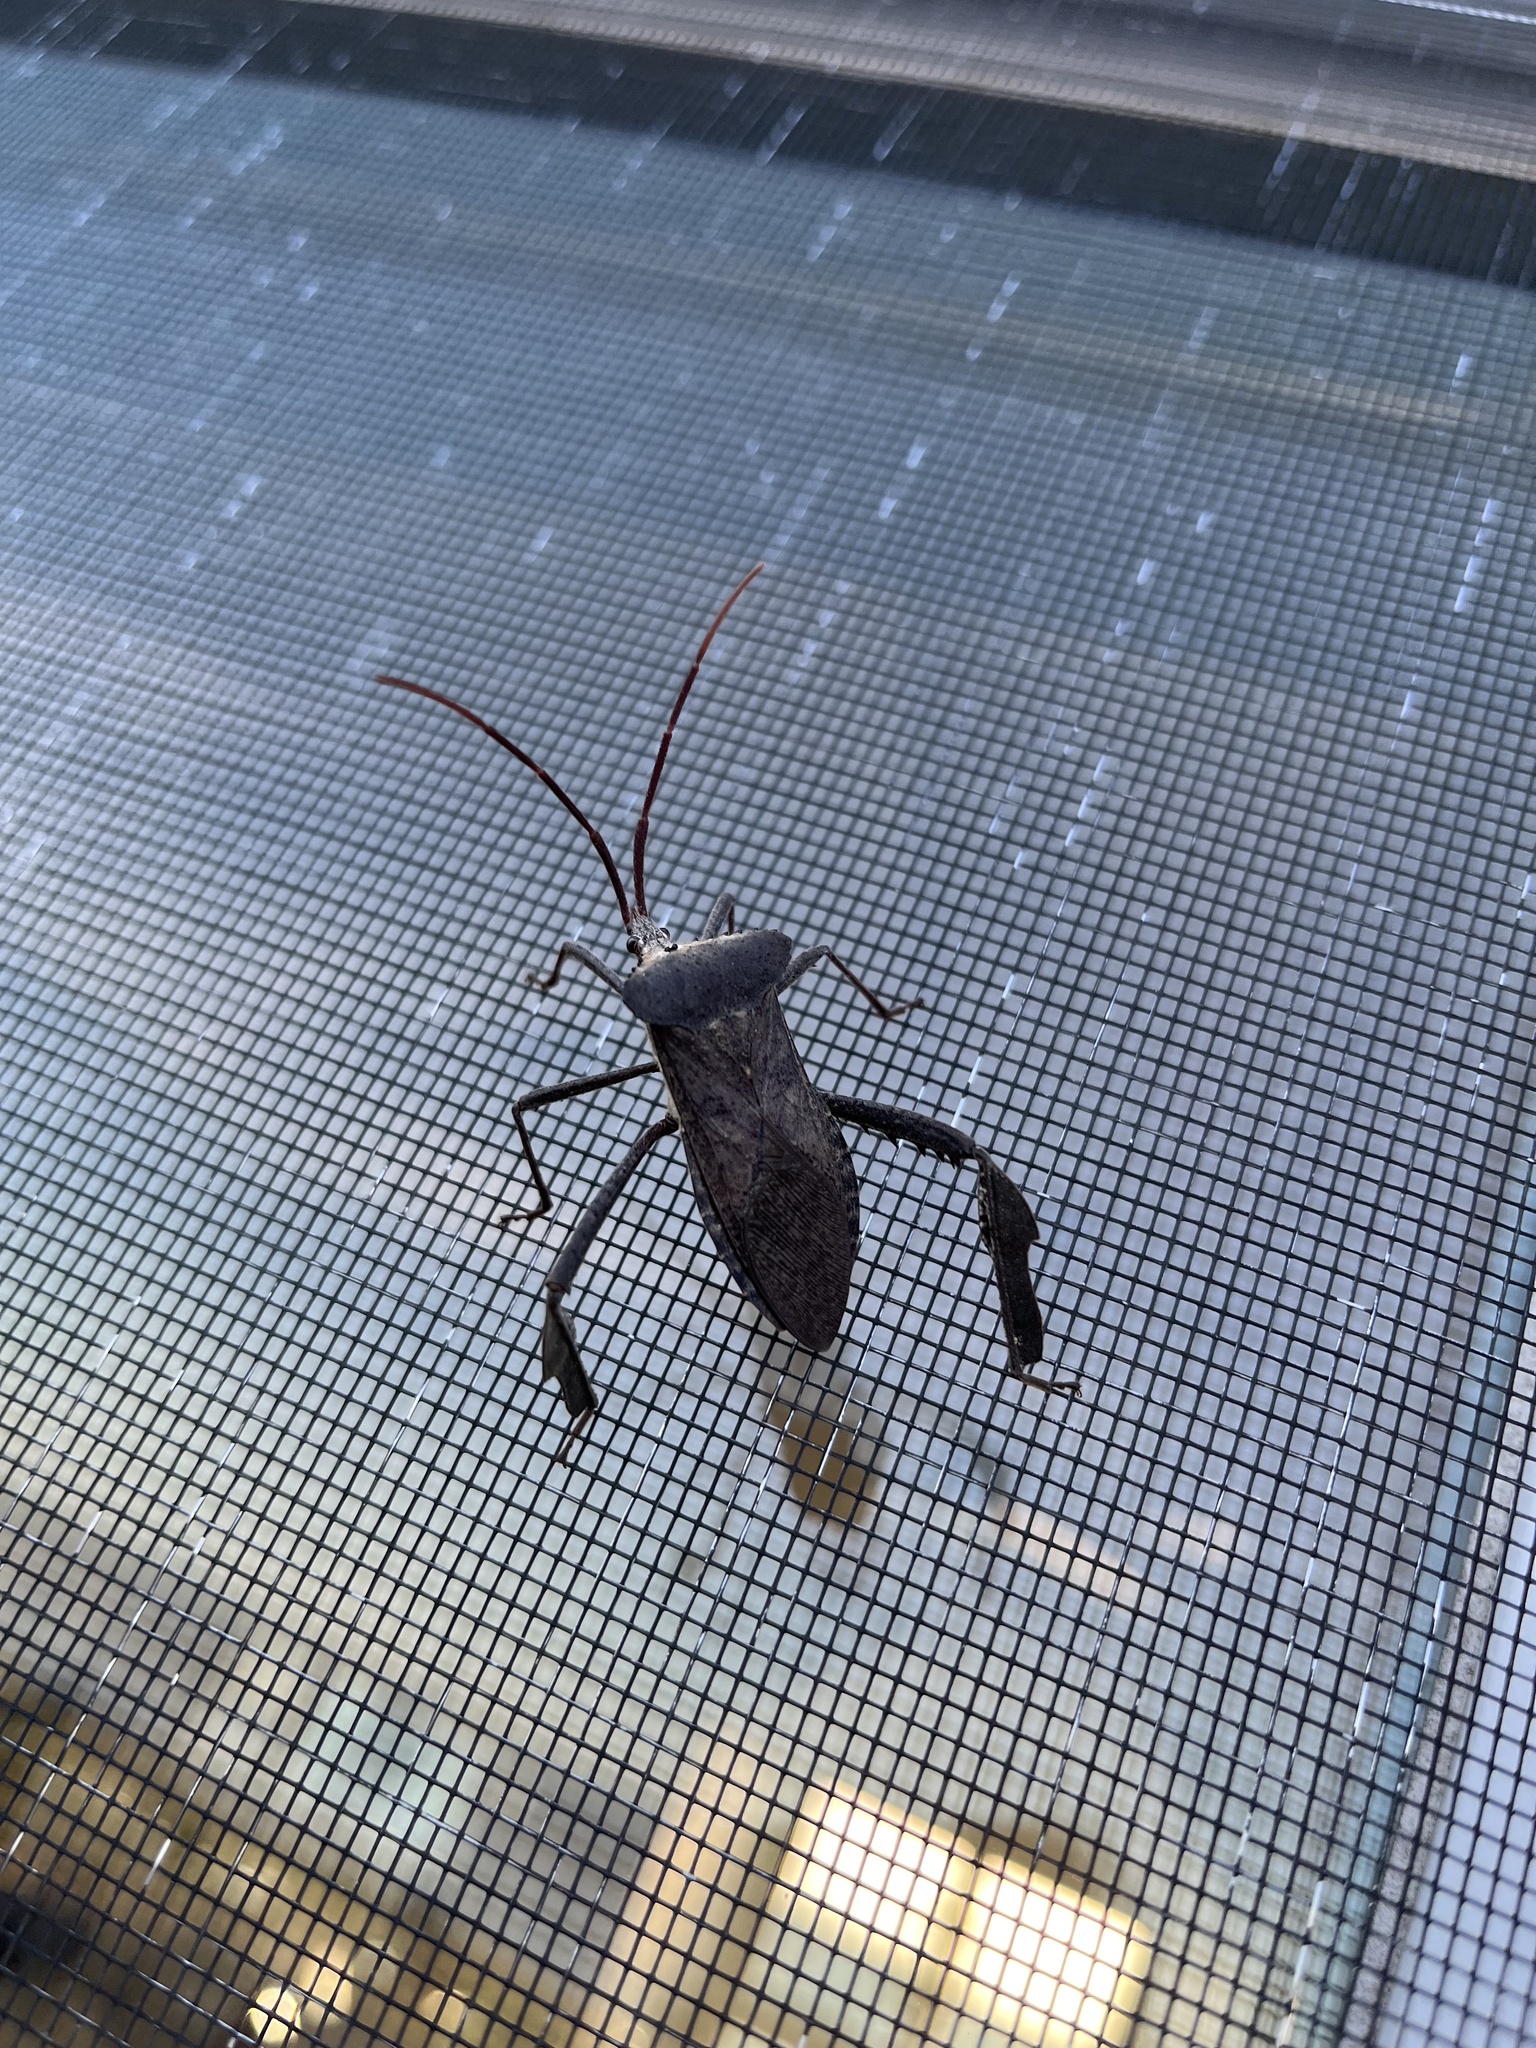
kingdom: Animalia
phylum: Arthropoda
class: Insecta
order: Hemiptera
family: Coreidae
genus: Acanthocephala
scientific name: Acanthocephala declivis
